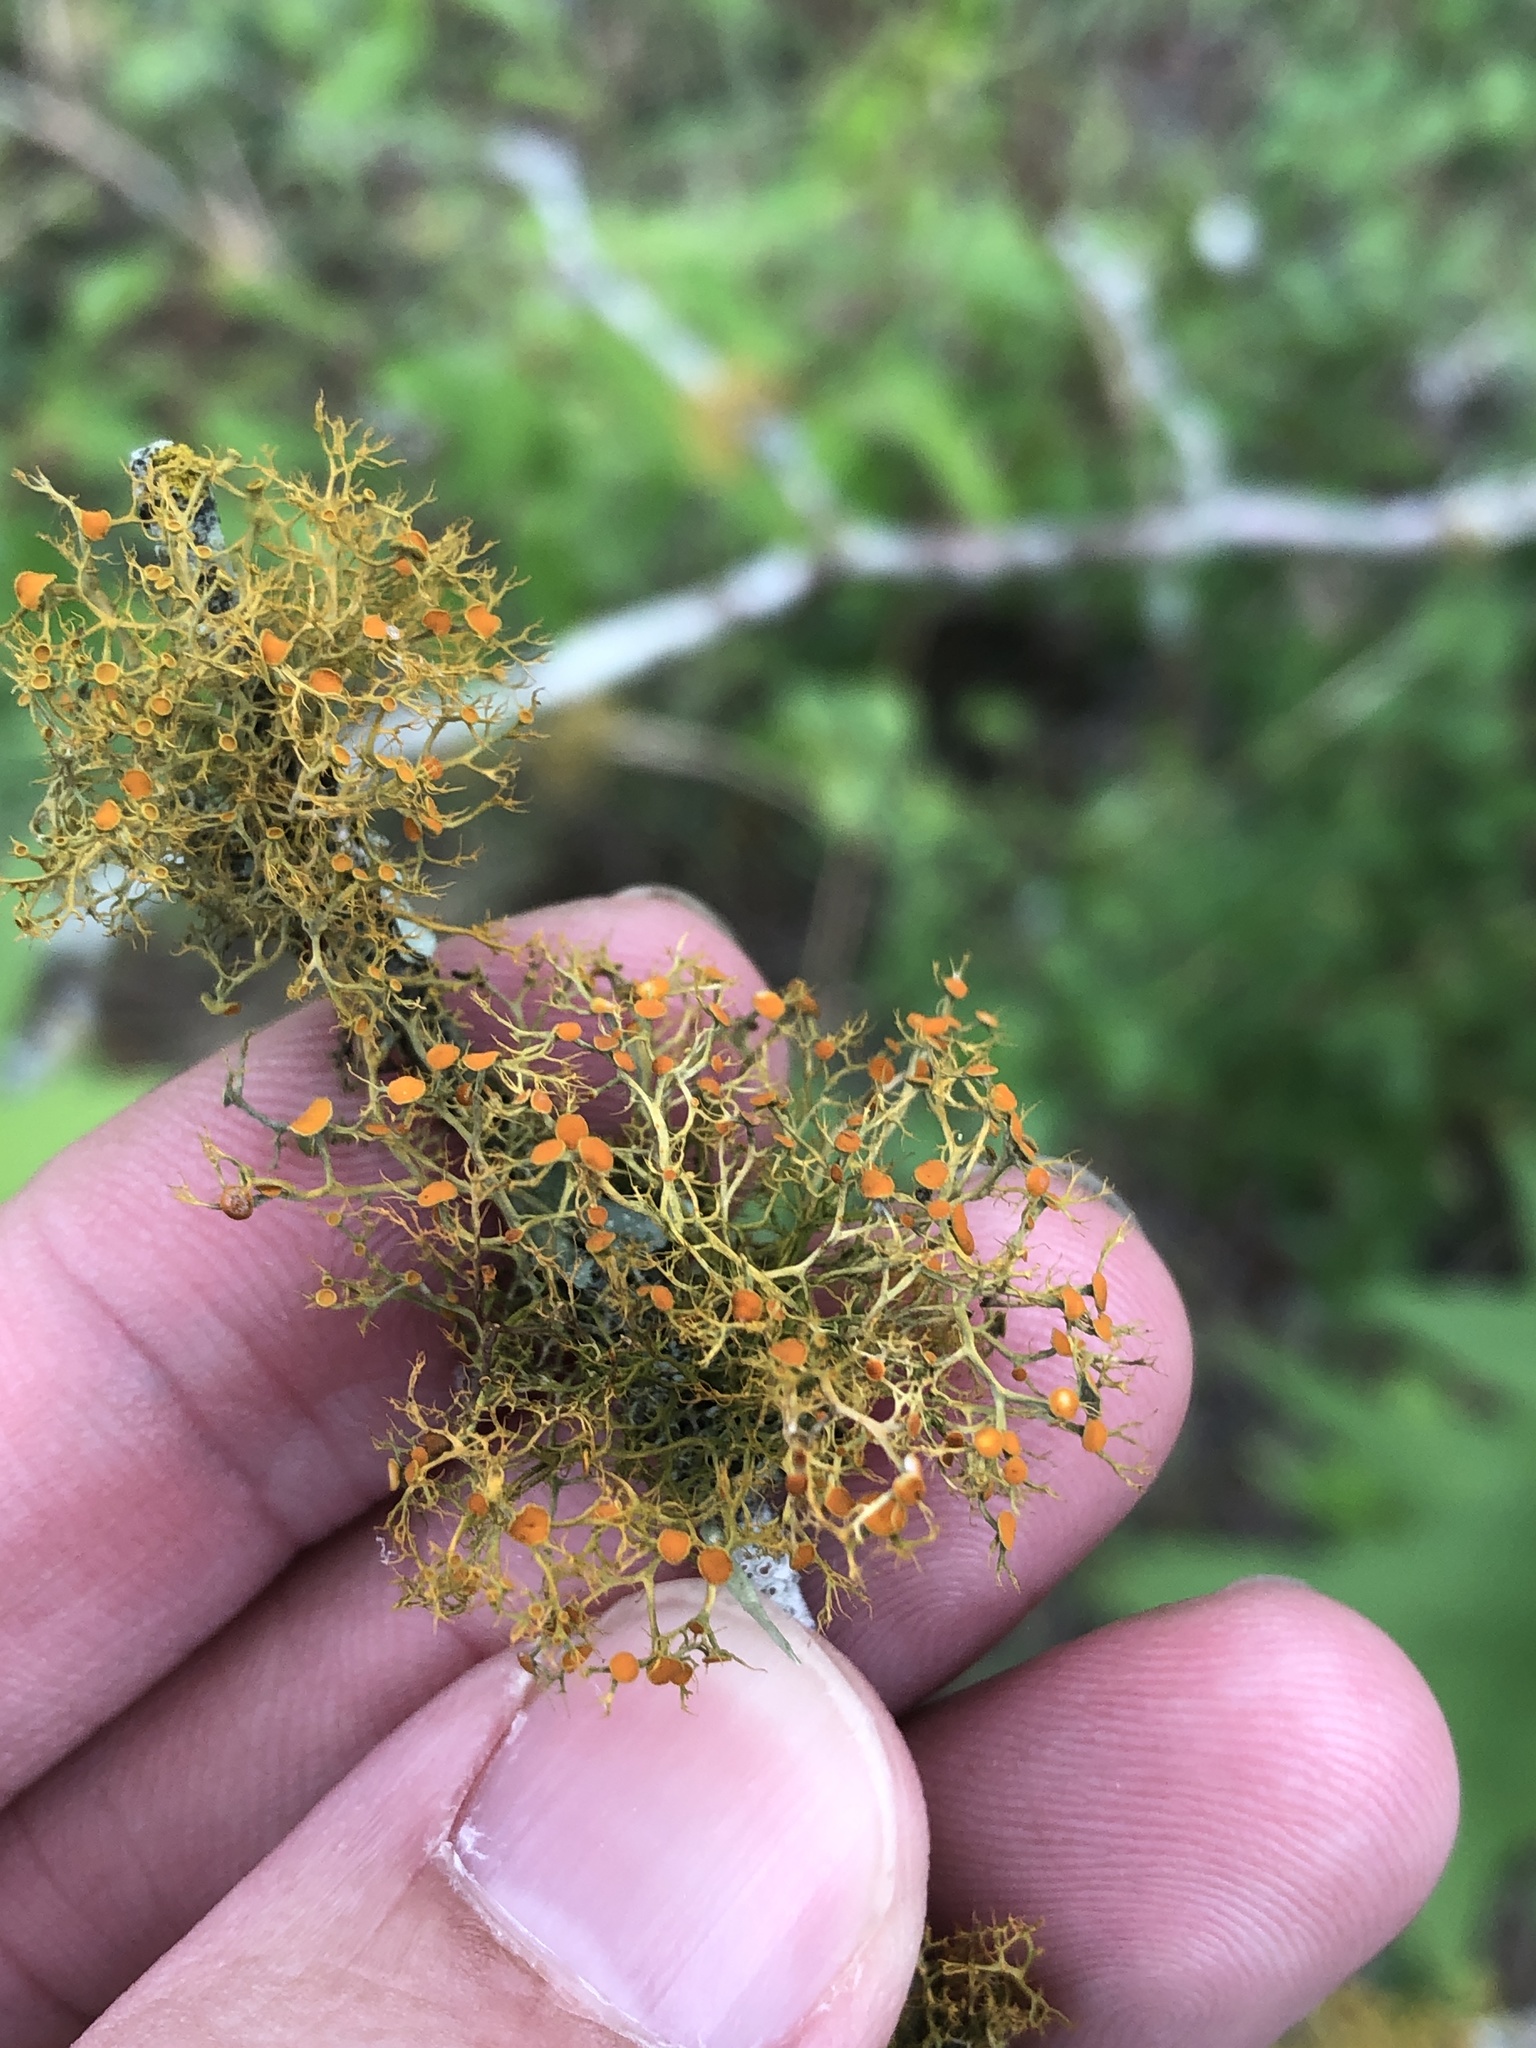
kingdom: Fungi
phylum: Ascomycota
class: Lecanoromycetes
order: Teloschistales
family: Teloschistaceae
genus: Teloschistes
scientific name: Teloschistes exilis
